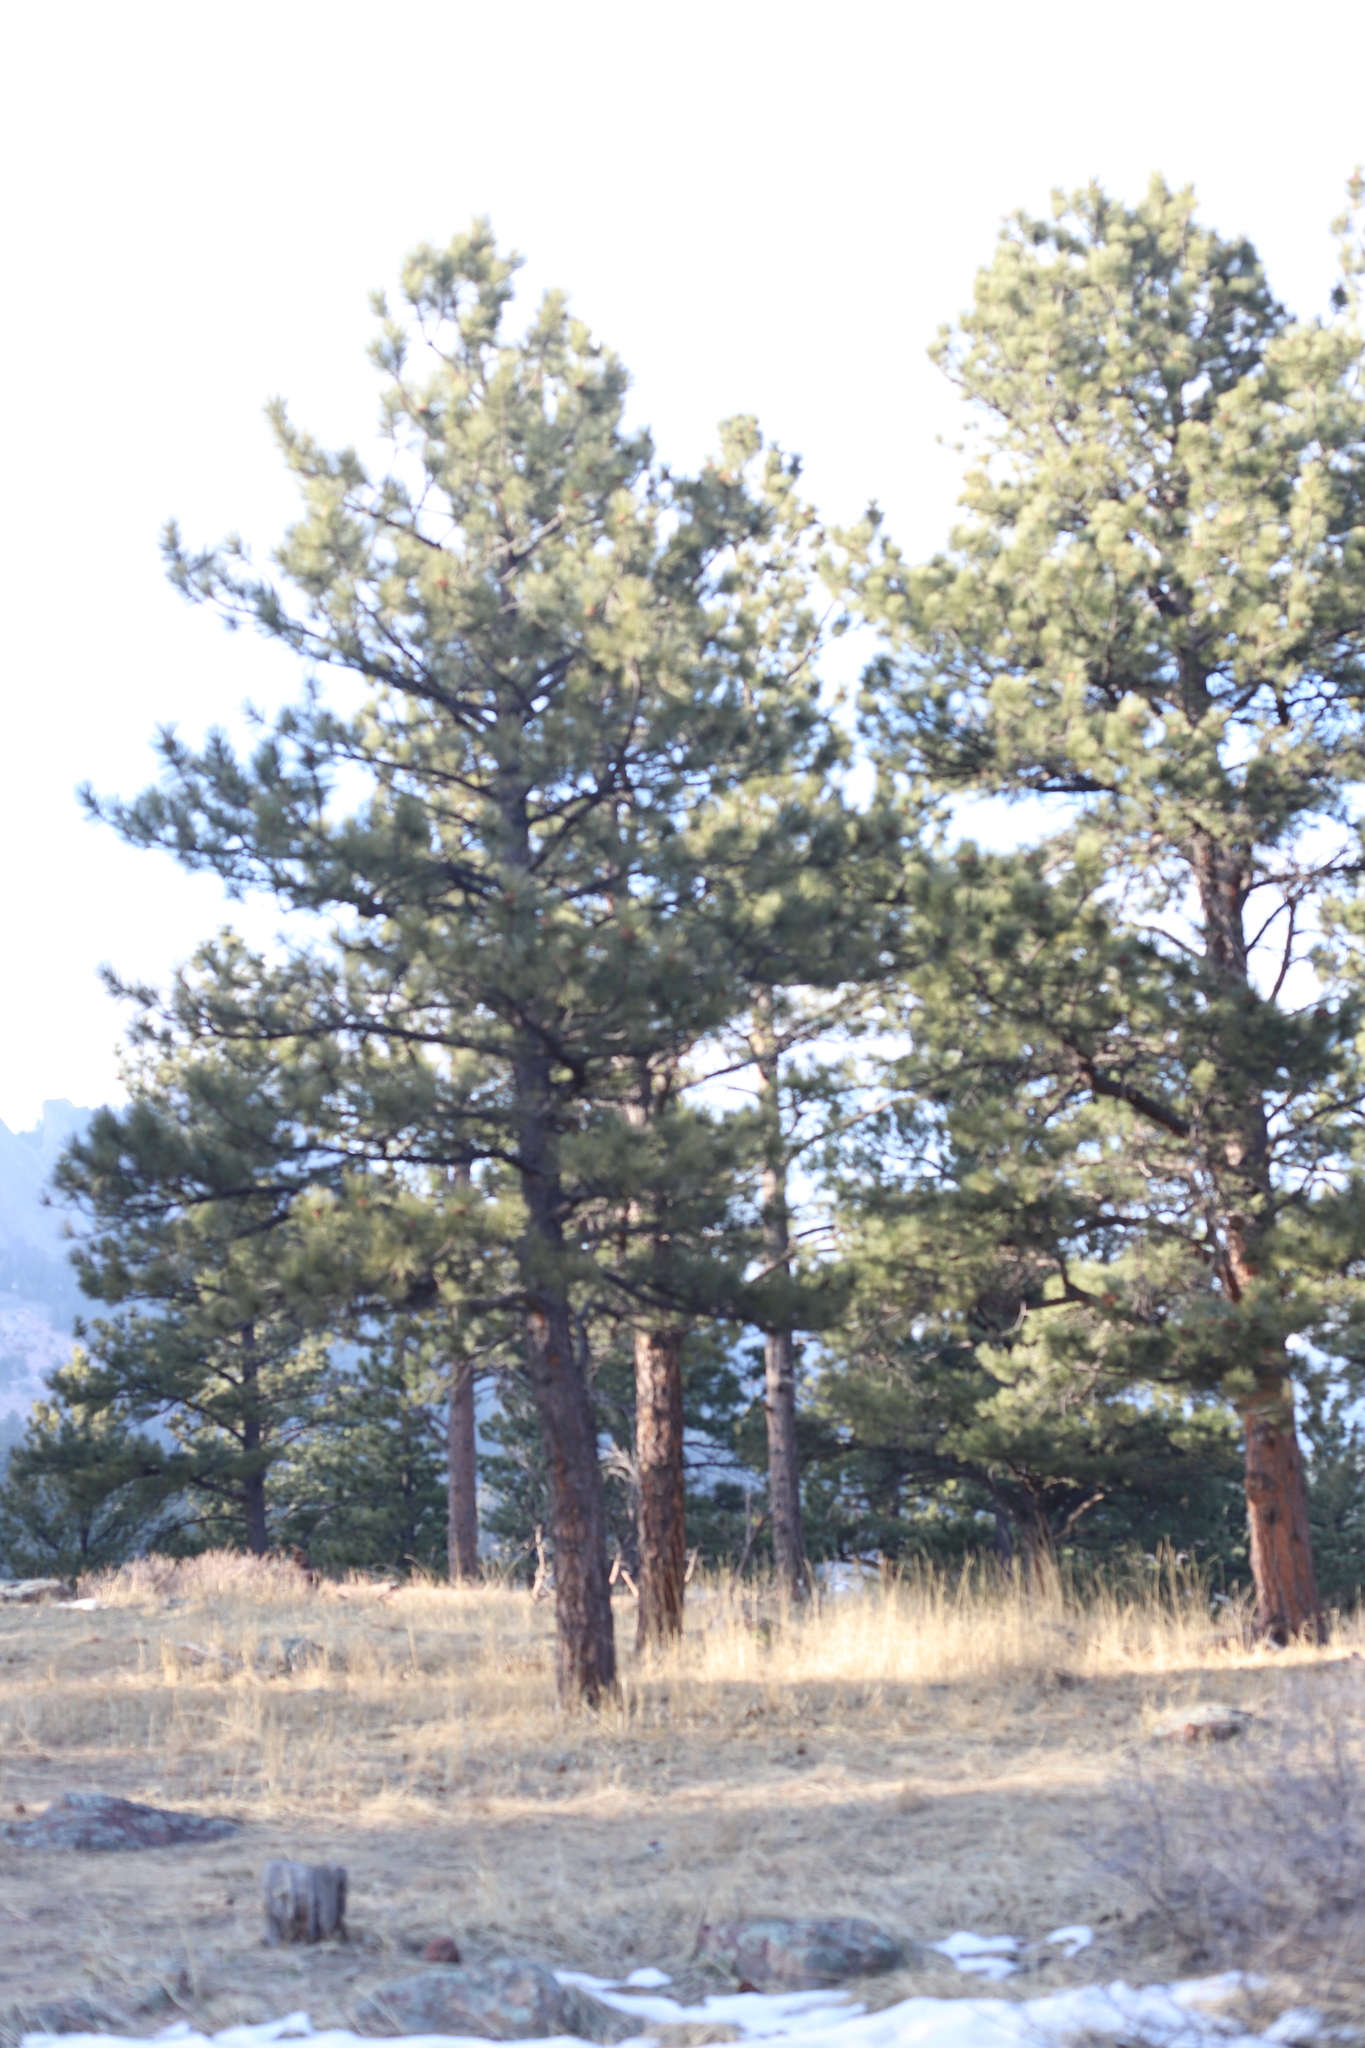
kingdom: Plantae
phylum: Tracheophyta
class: Pinopsida
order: Pinales
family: Pinaceae
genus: Pinus
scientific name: Pinus ponderosa
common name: Western yellow-pine
